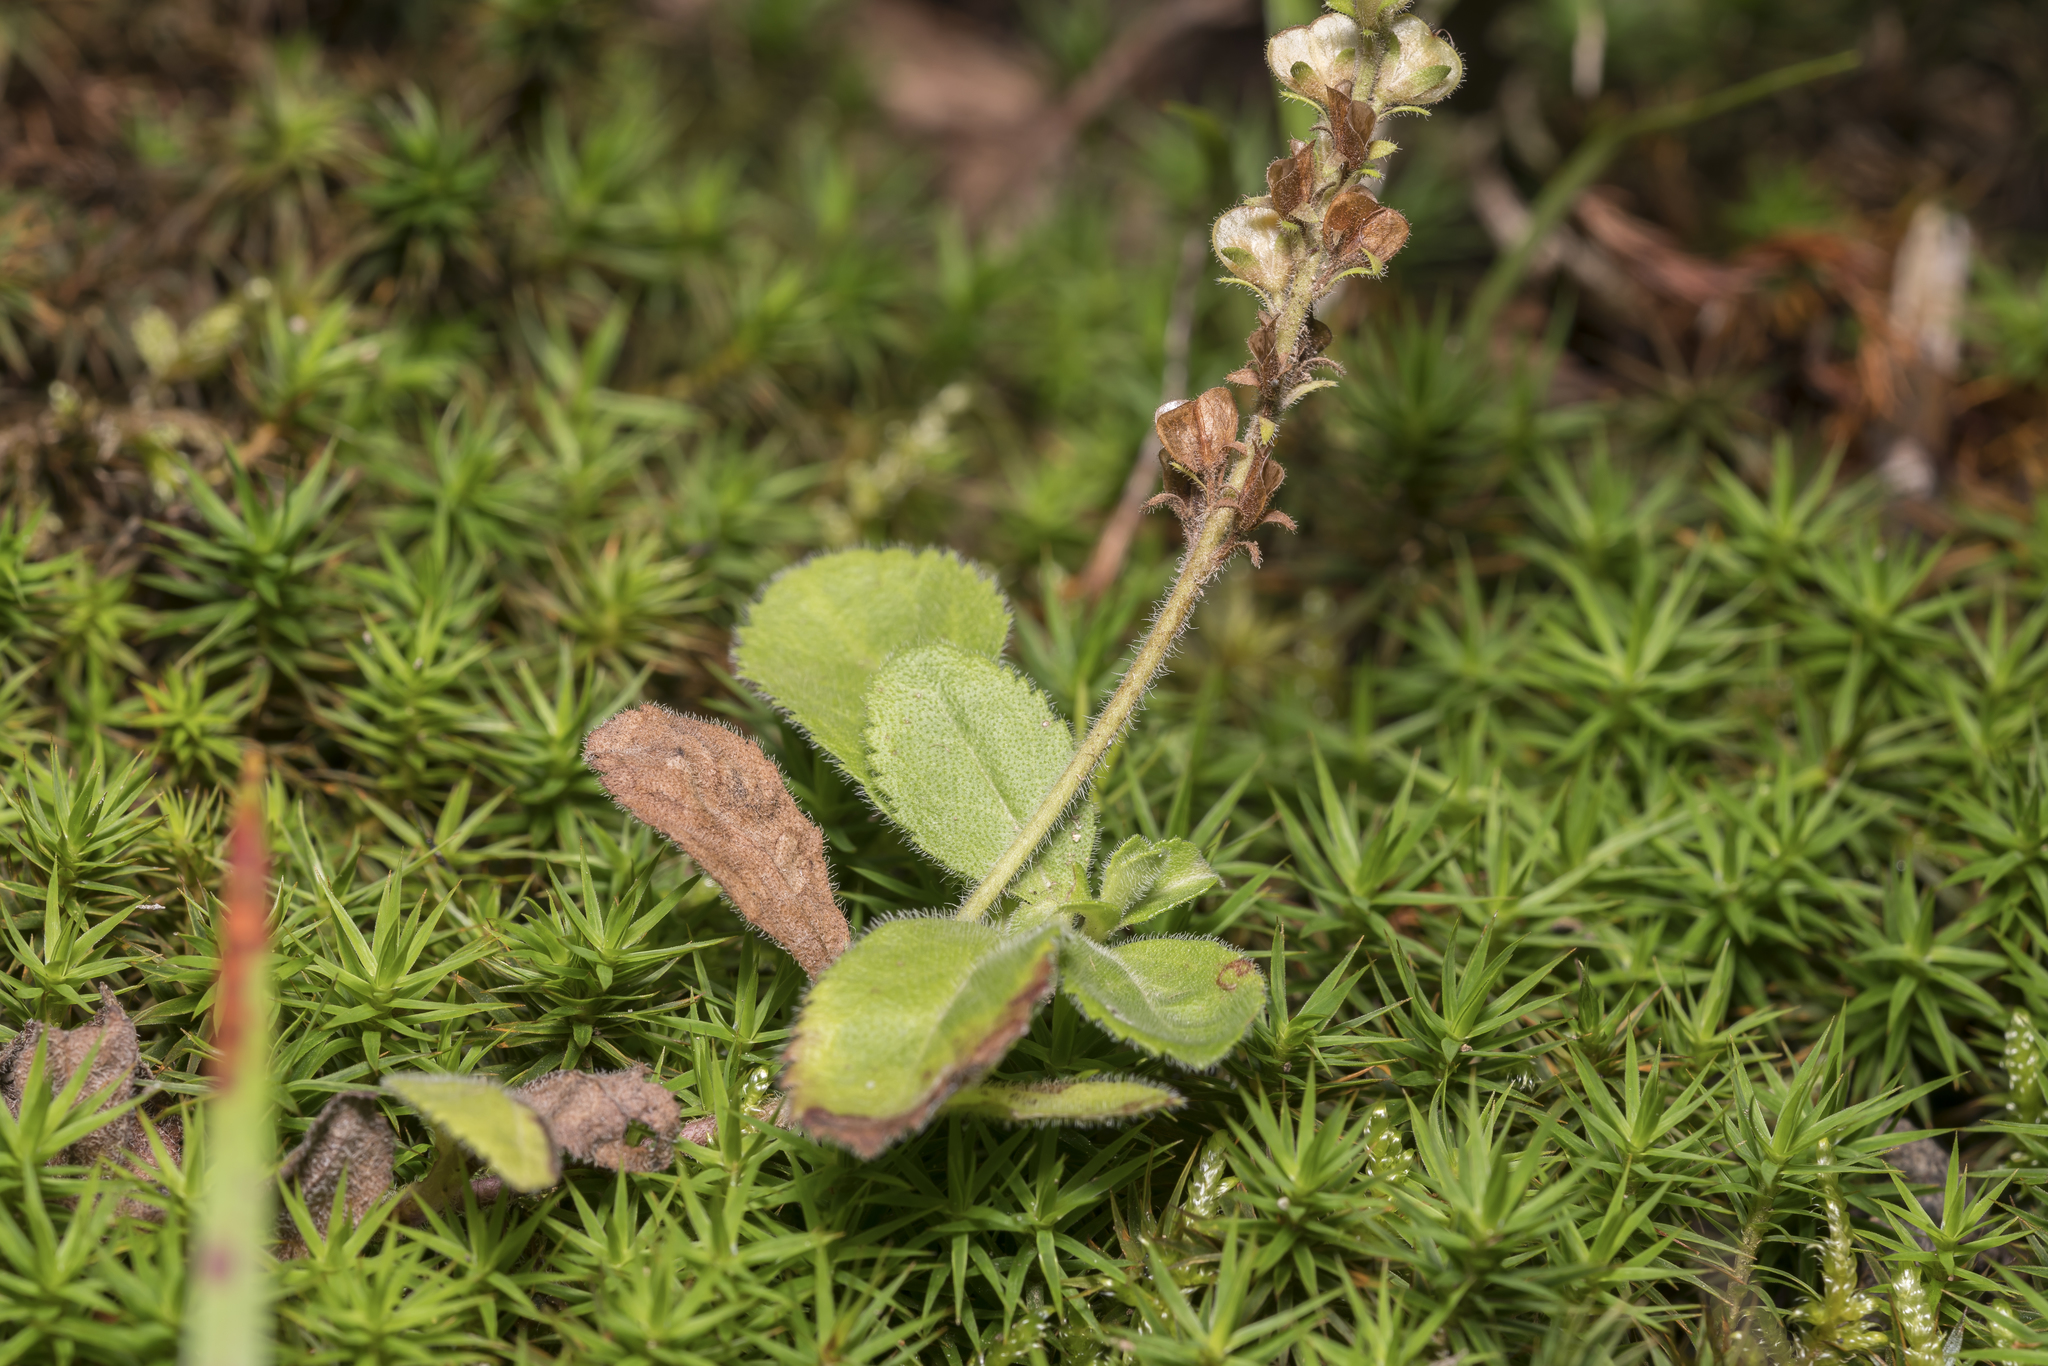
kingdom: Plantae
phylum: Tracheophyta
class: Magnoliopsida
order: Lamiales
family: Plantaginaceae
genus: Veronica
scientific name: Veronica officinalis
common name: Common speedwell
